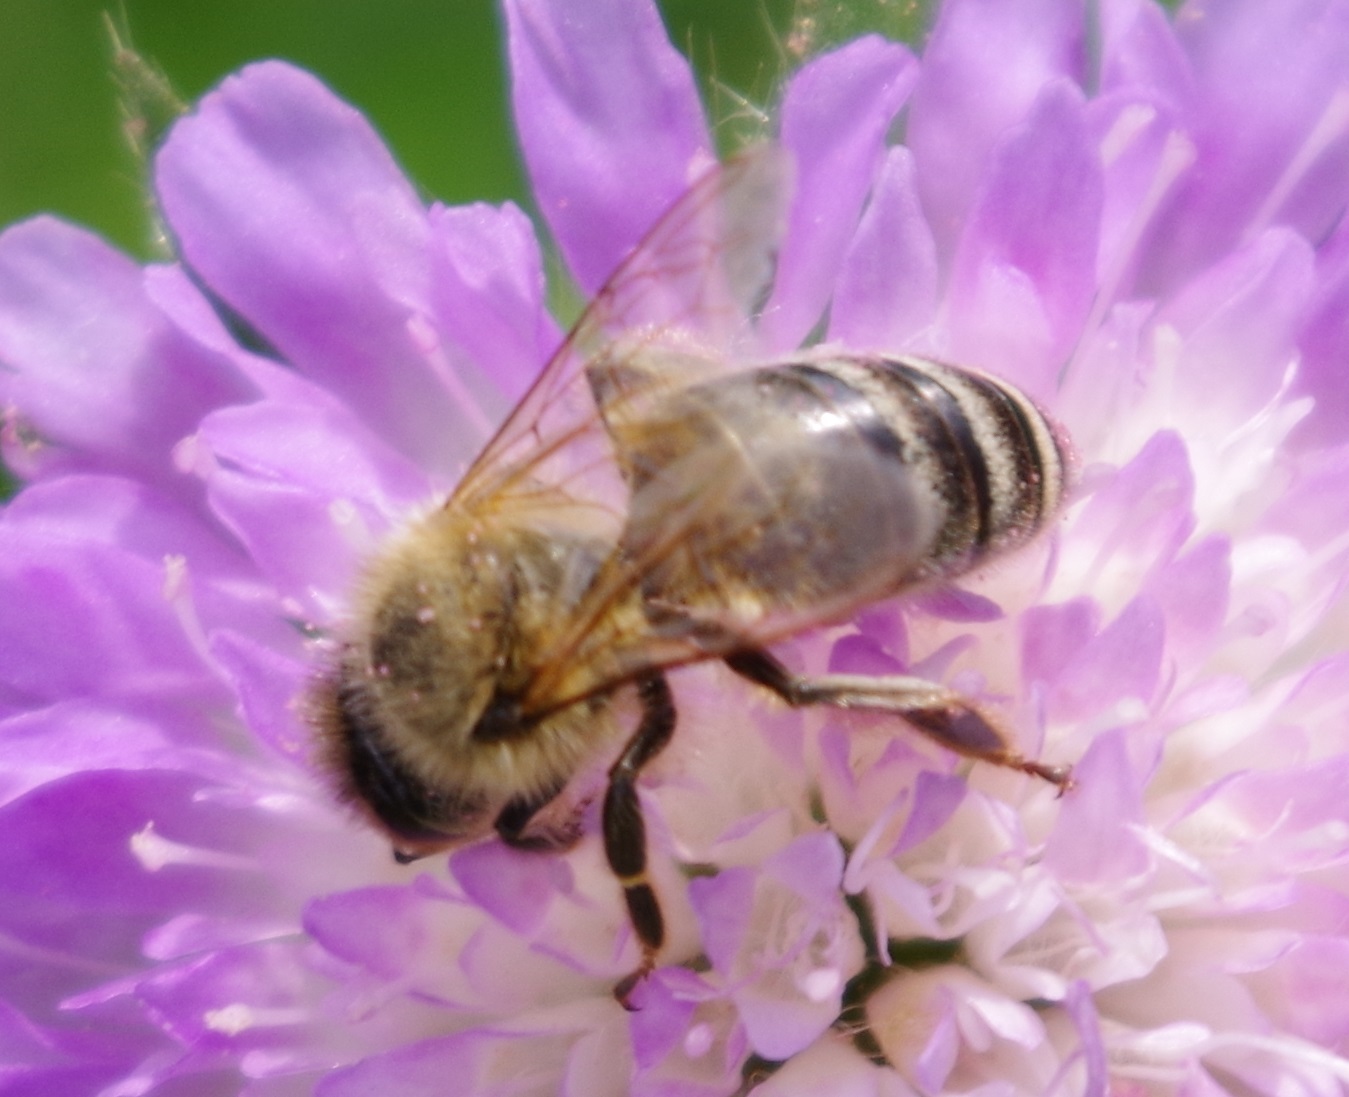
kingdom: Animalia
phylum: Arthropoda
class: Insecta
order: Hymenoptera
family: Apidae
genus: Apis
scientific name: Apis mellifera
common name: Honey bee
